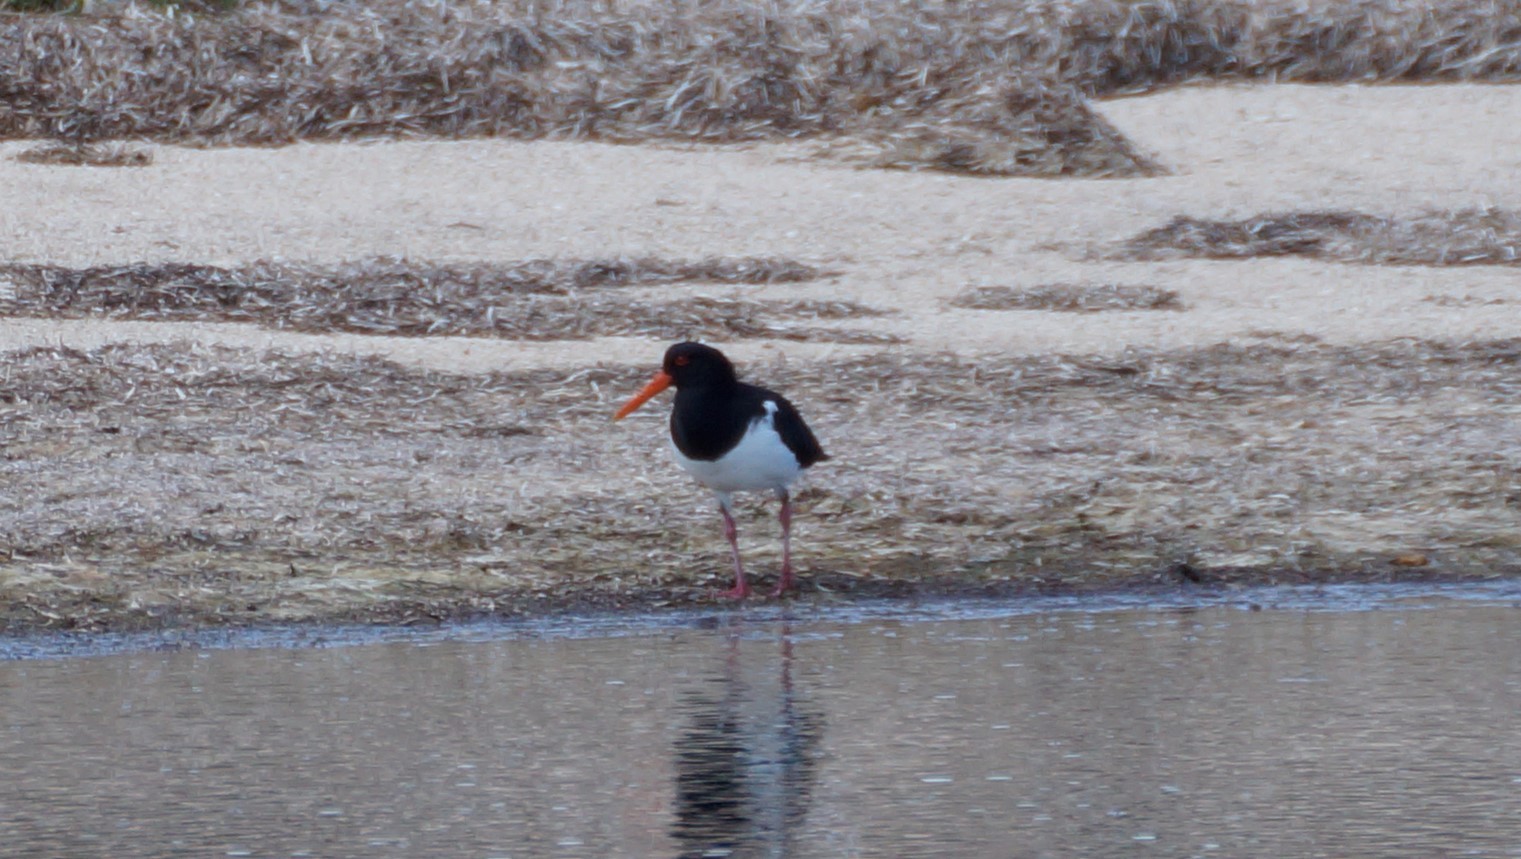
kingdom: Animalia
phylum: Chordata
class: Aves
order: Charadriiformes
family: Haematopodidae
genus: Haematopus
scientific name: Haematopus longirostris
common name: Pied oystercatcher
